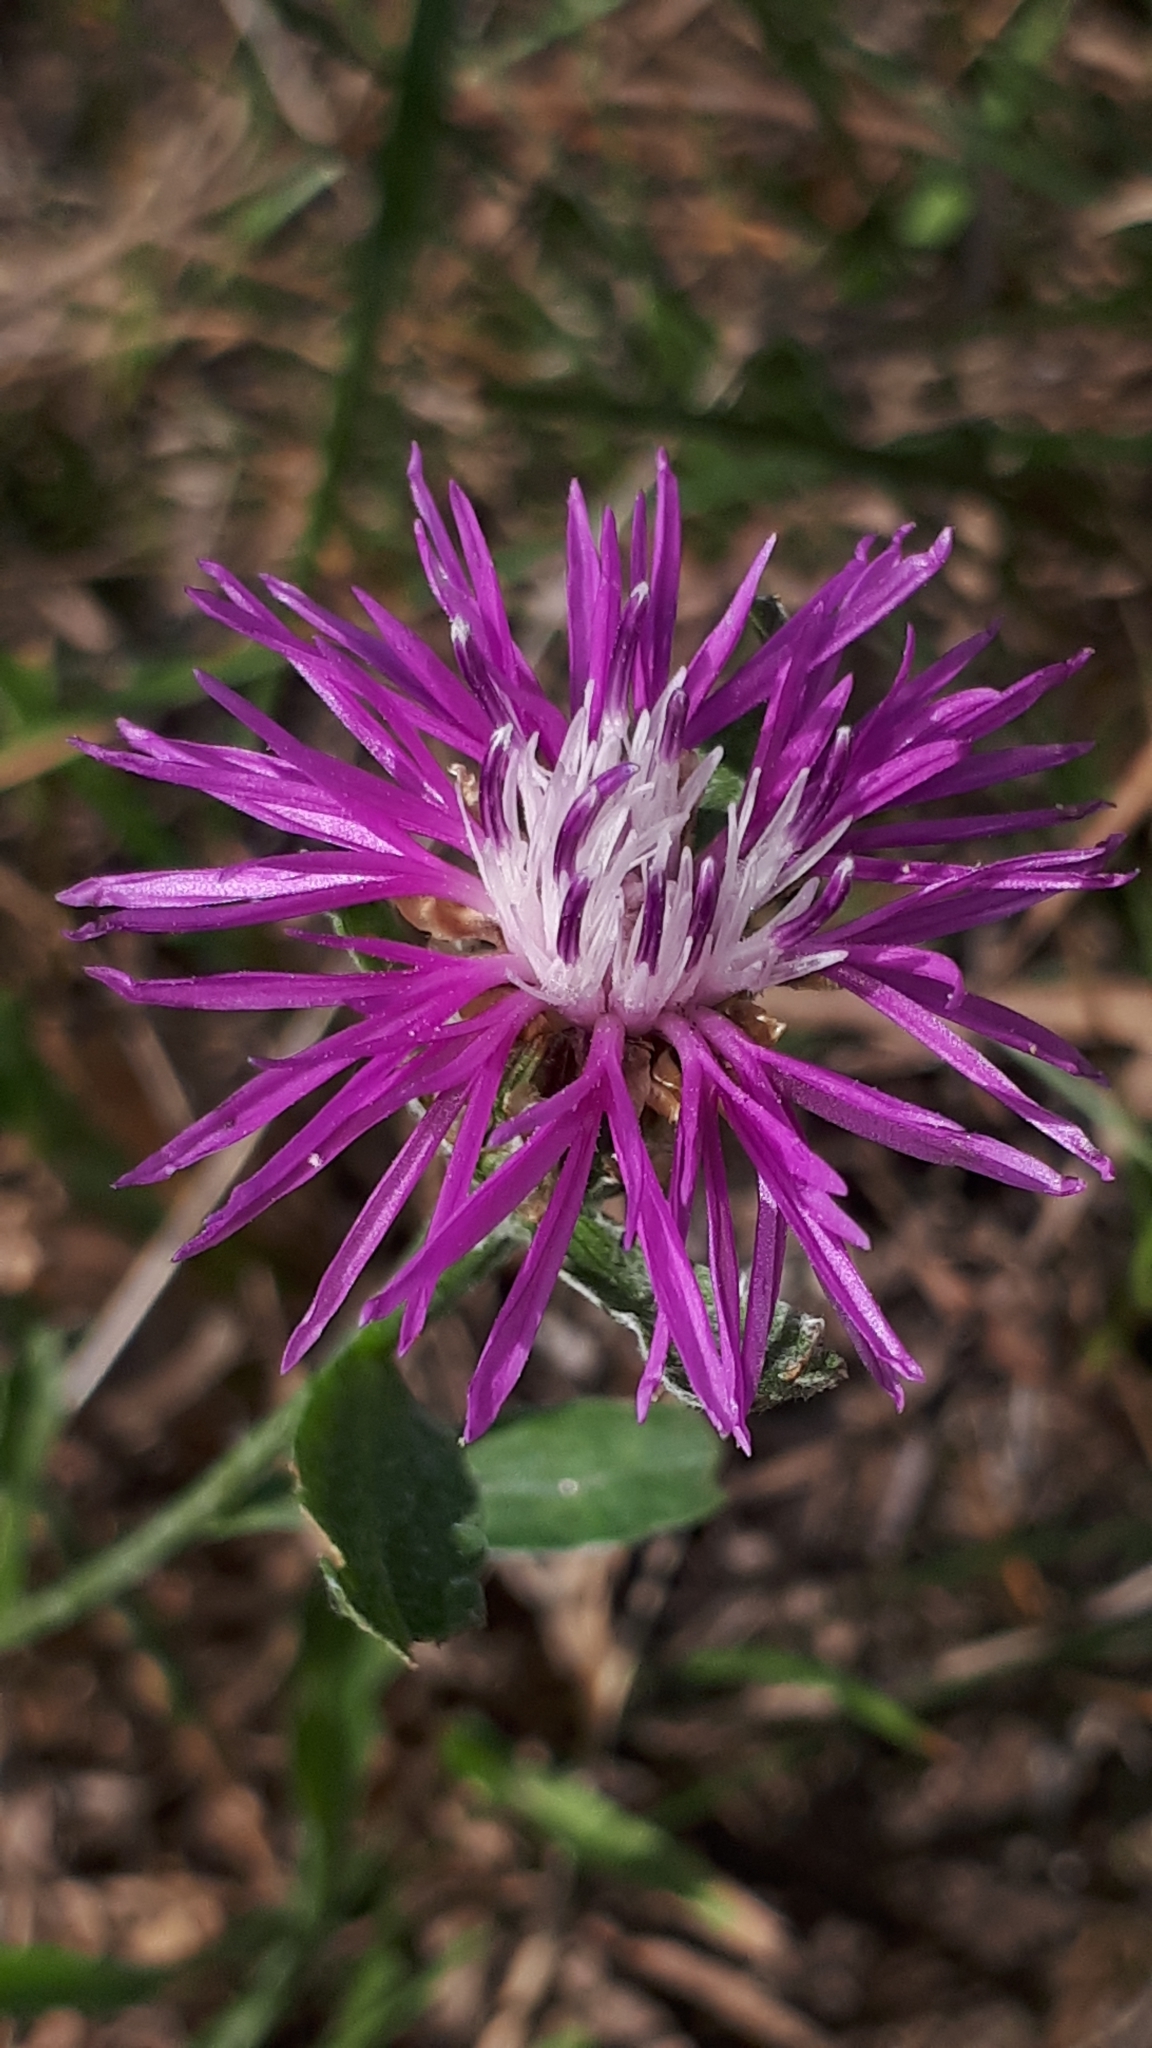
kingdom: Plantae
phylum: Tracheophyta
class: Magnoliopsida
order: Asterales
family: Asteraceae
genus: Centaurea
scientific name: Centaurea jacea
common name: Brown knapweed
